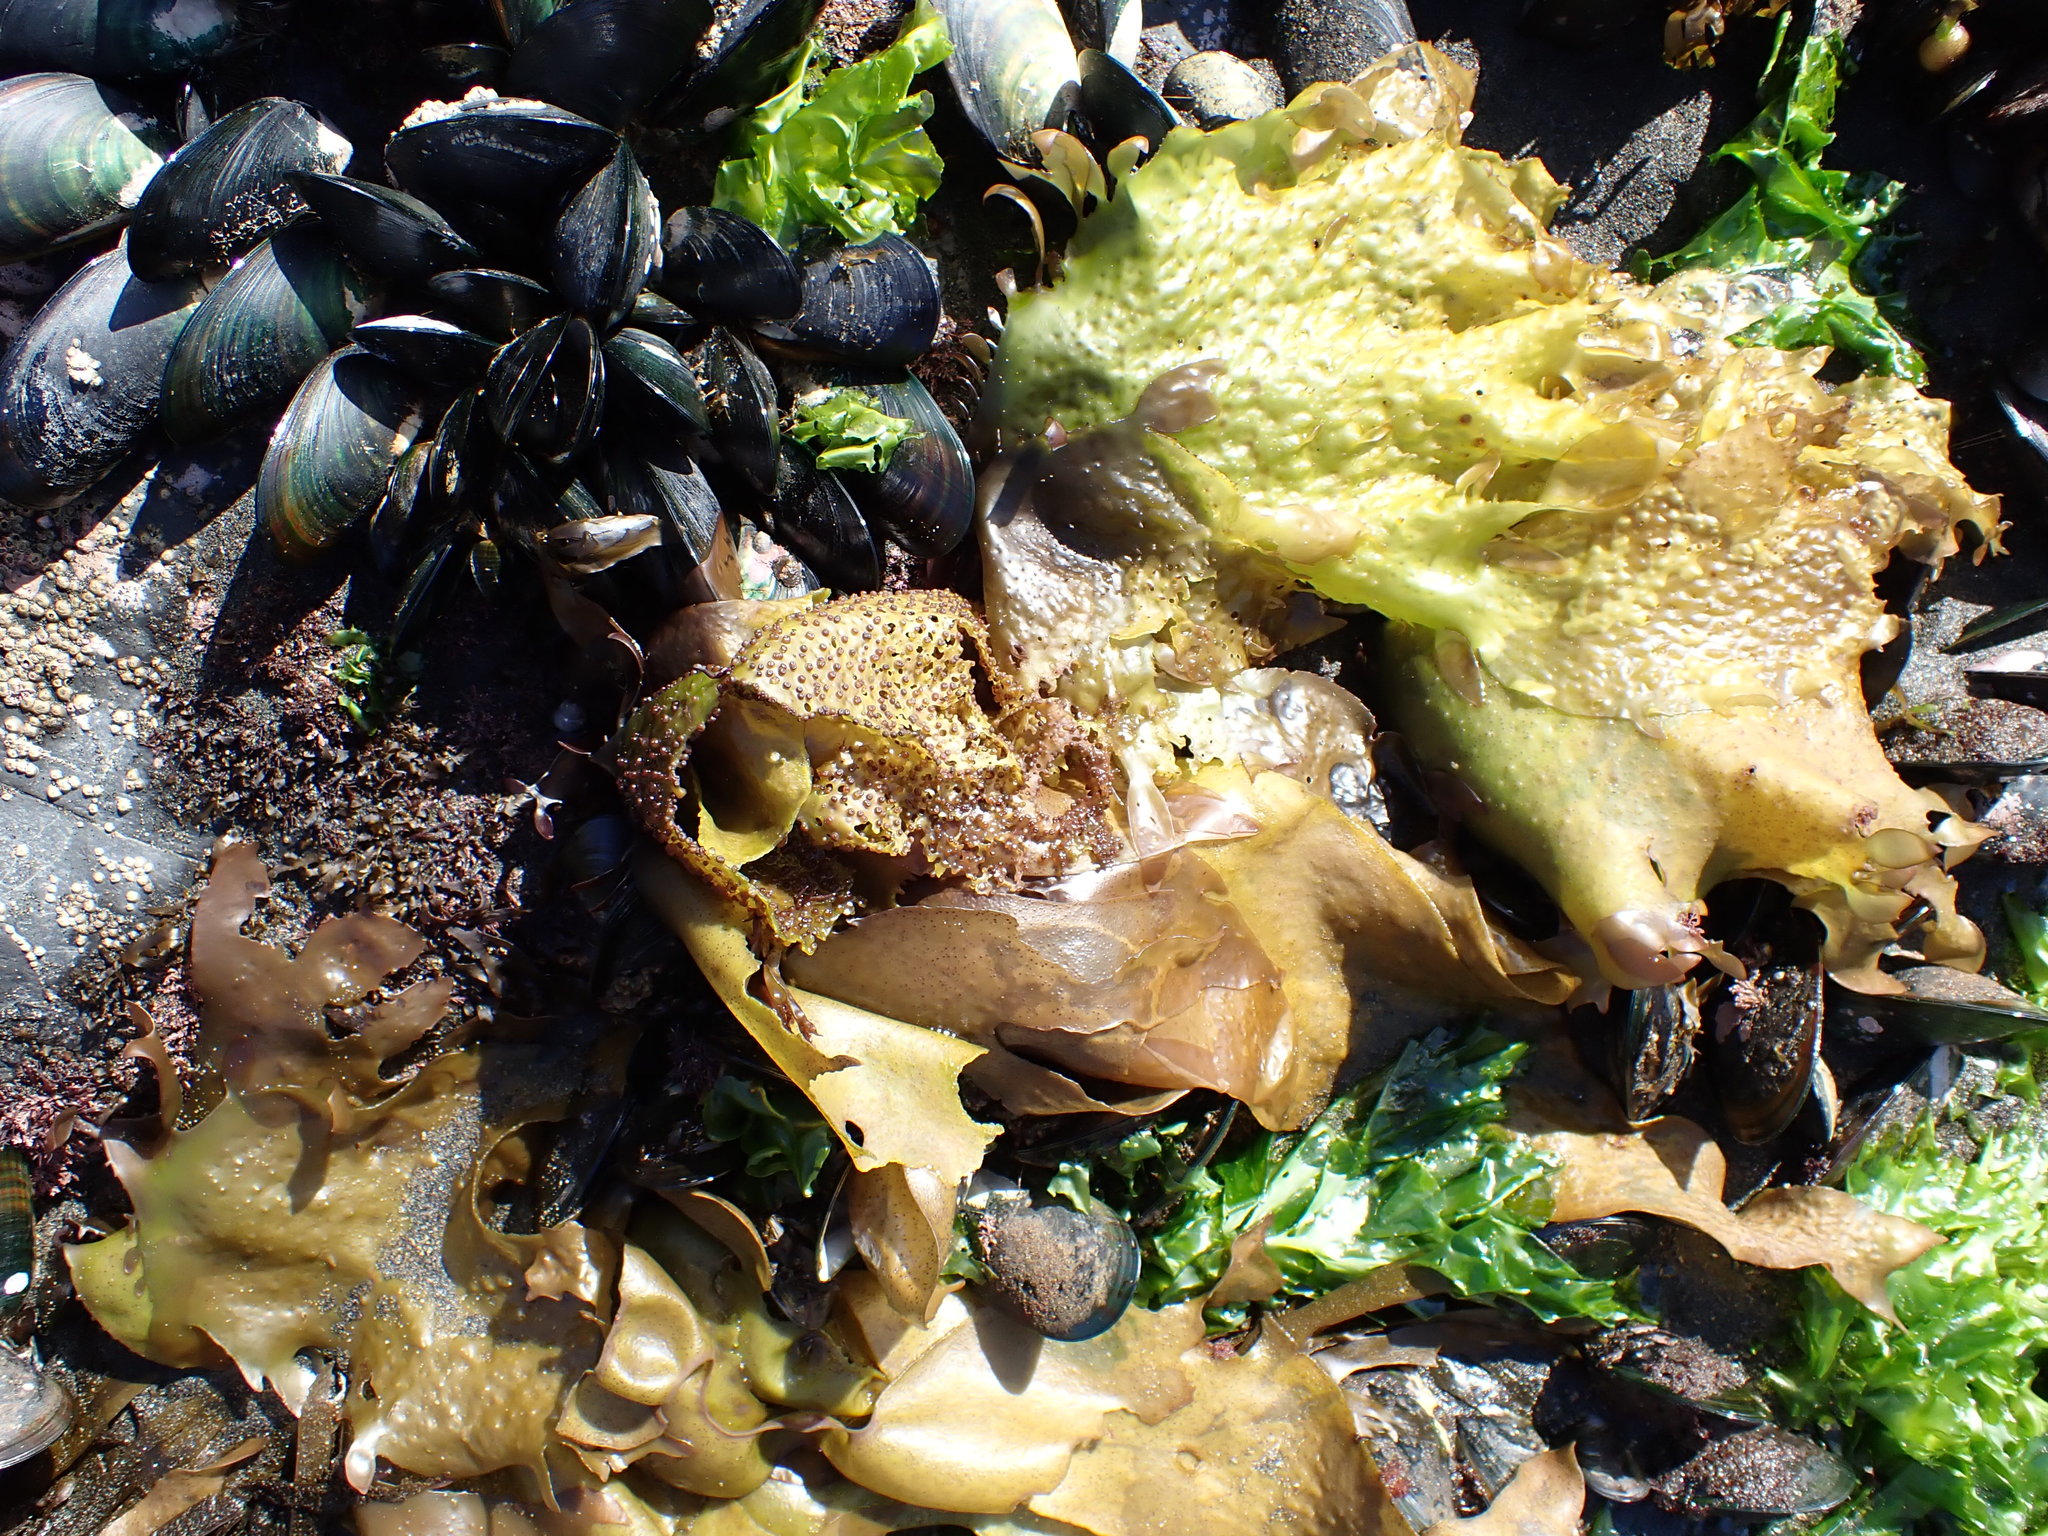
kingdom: Plantae
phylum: Rhodophyta
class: Florideophyceae
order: Gigartinales
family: Gigartinaceae
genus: Sarcothalia
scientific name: Sarcothalia
